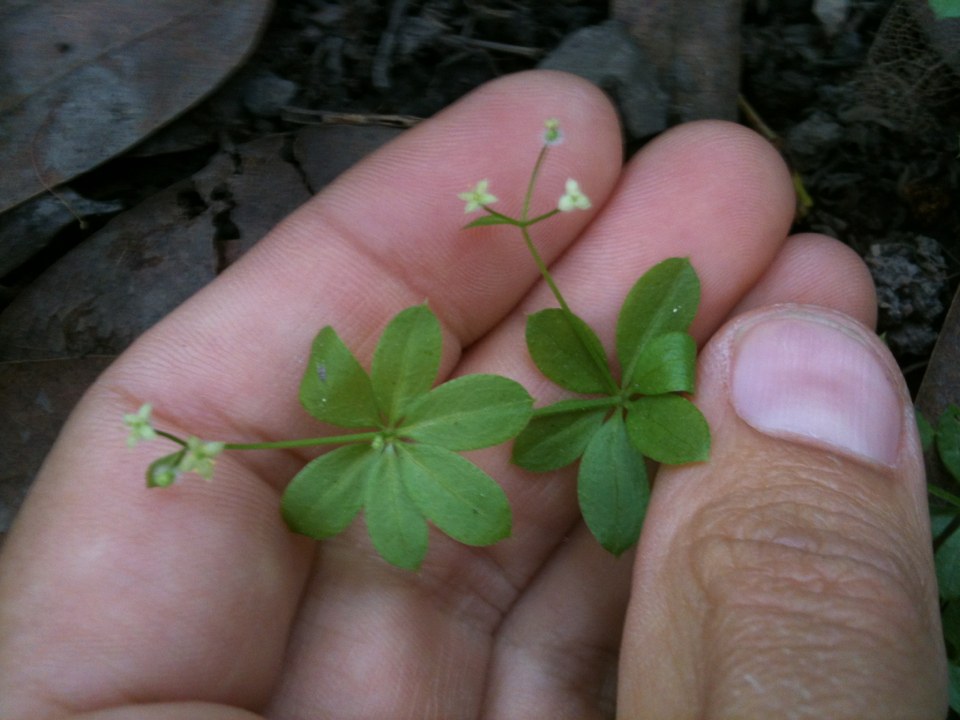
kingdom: Plantae
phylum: Tracheophyta
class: Magnoliopsida
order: Gentianales
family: Rubiaceae
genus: Galium
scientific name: Galium triflorum
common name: Fragrant bedstraw
